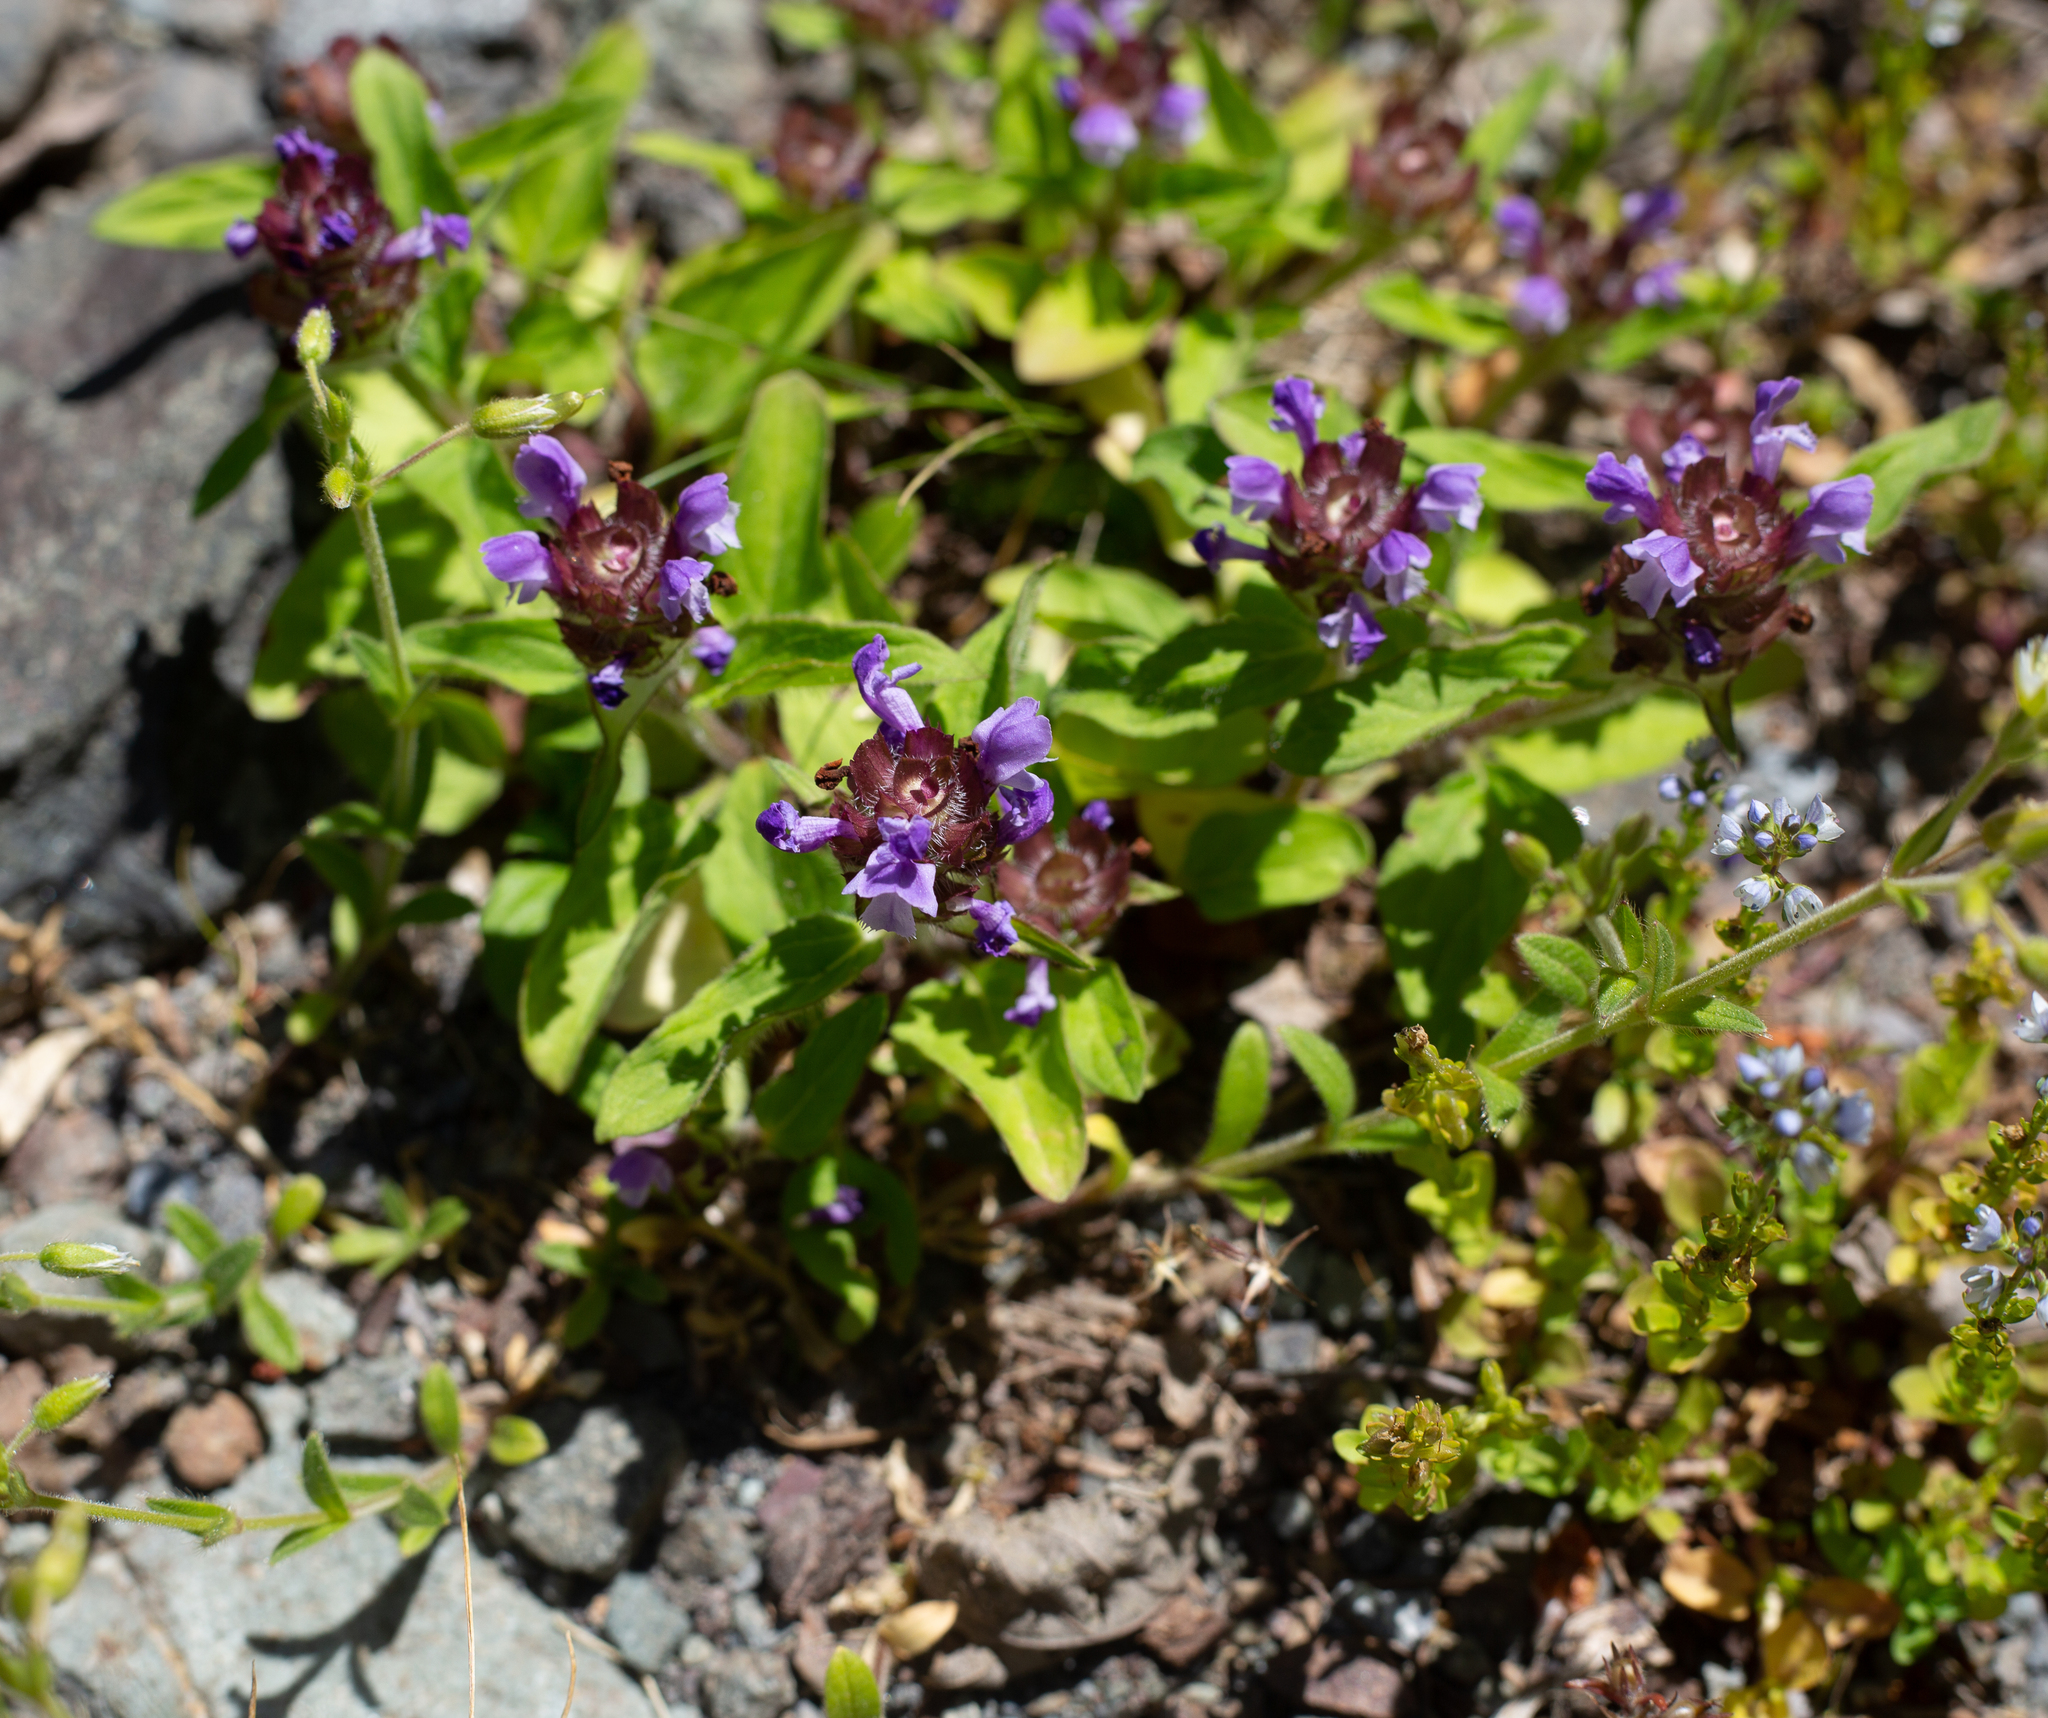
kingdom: Plantae
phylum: Tracheophyta
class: Magnoliopsida
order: Lamiales
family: Lamiaceae
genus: Prunella
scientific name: Prunella vulgaris
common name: Heal-all
